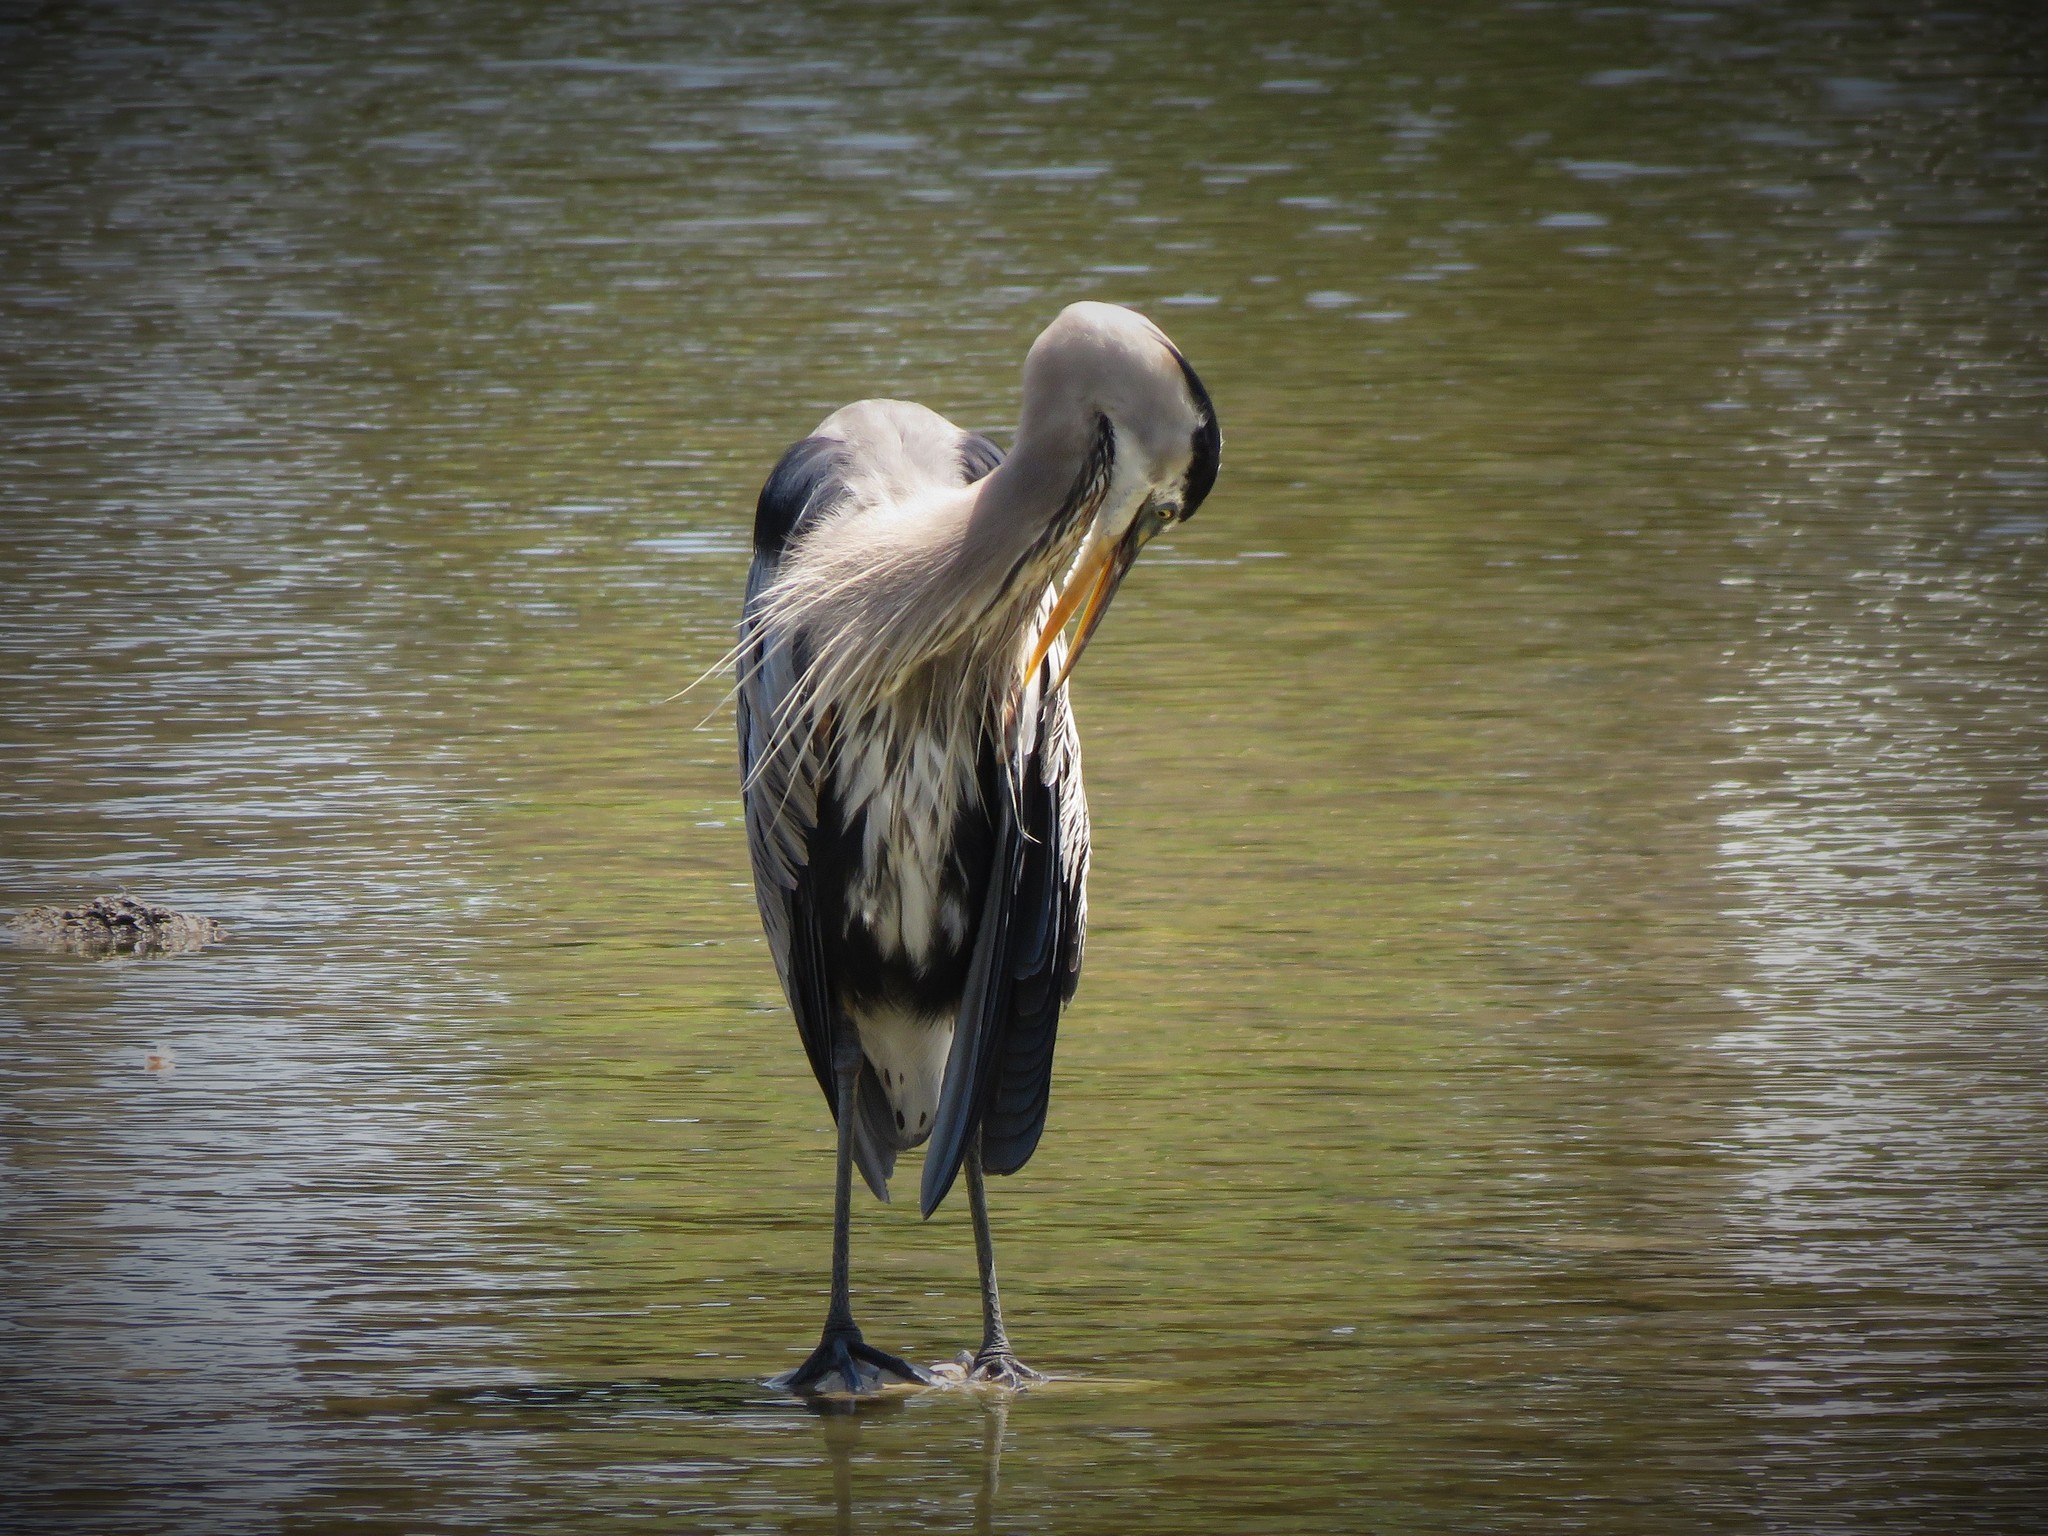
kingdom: Animalia
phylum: Chordata
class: Aves
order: Pelecaniformes
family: Ardeidae
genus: Ardea
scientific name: Ardea herodias
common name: Great blue heron
